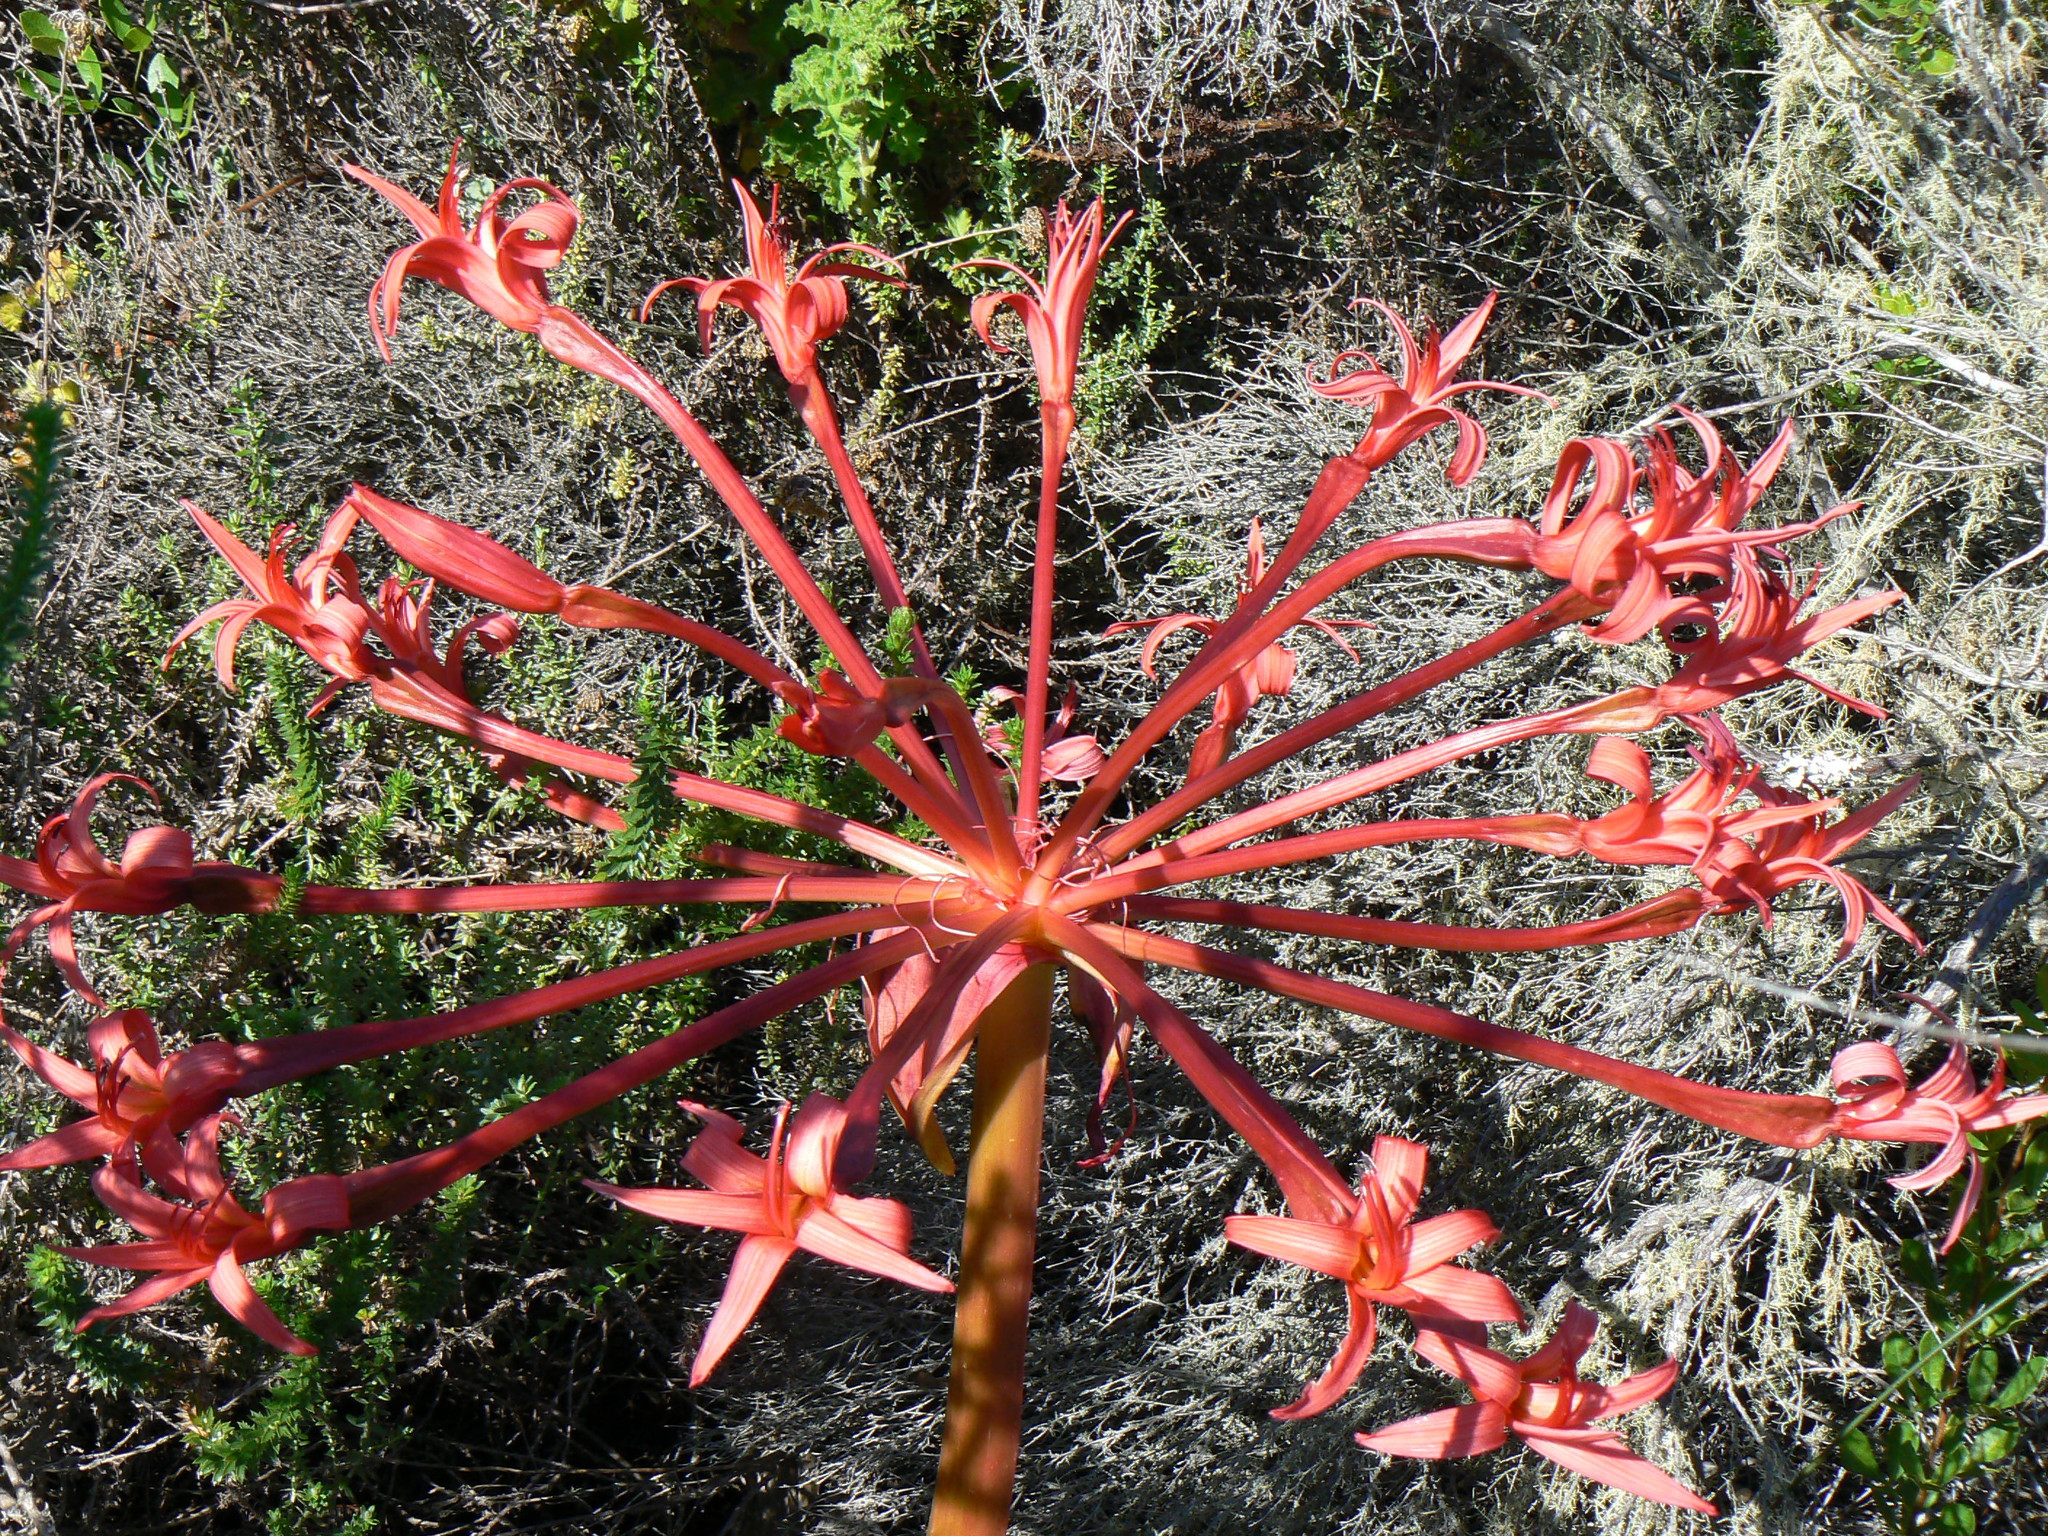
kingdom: Plantae
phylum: Tracheophyta
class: Liliopsida
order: Asparagales
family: Amaryllidaceae
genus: Brunsvigia
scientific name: Brunsvigia orientalis
